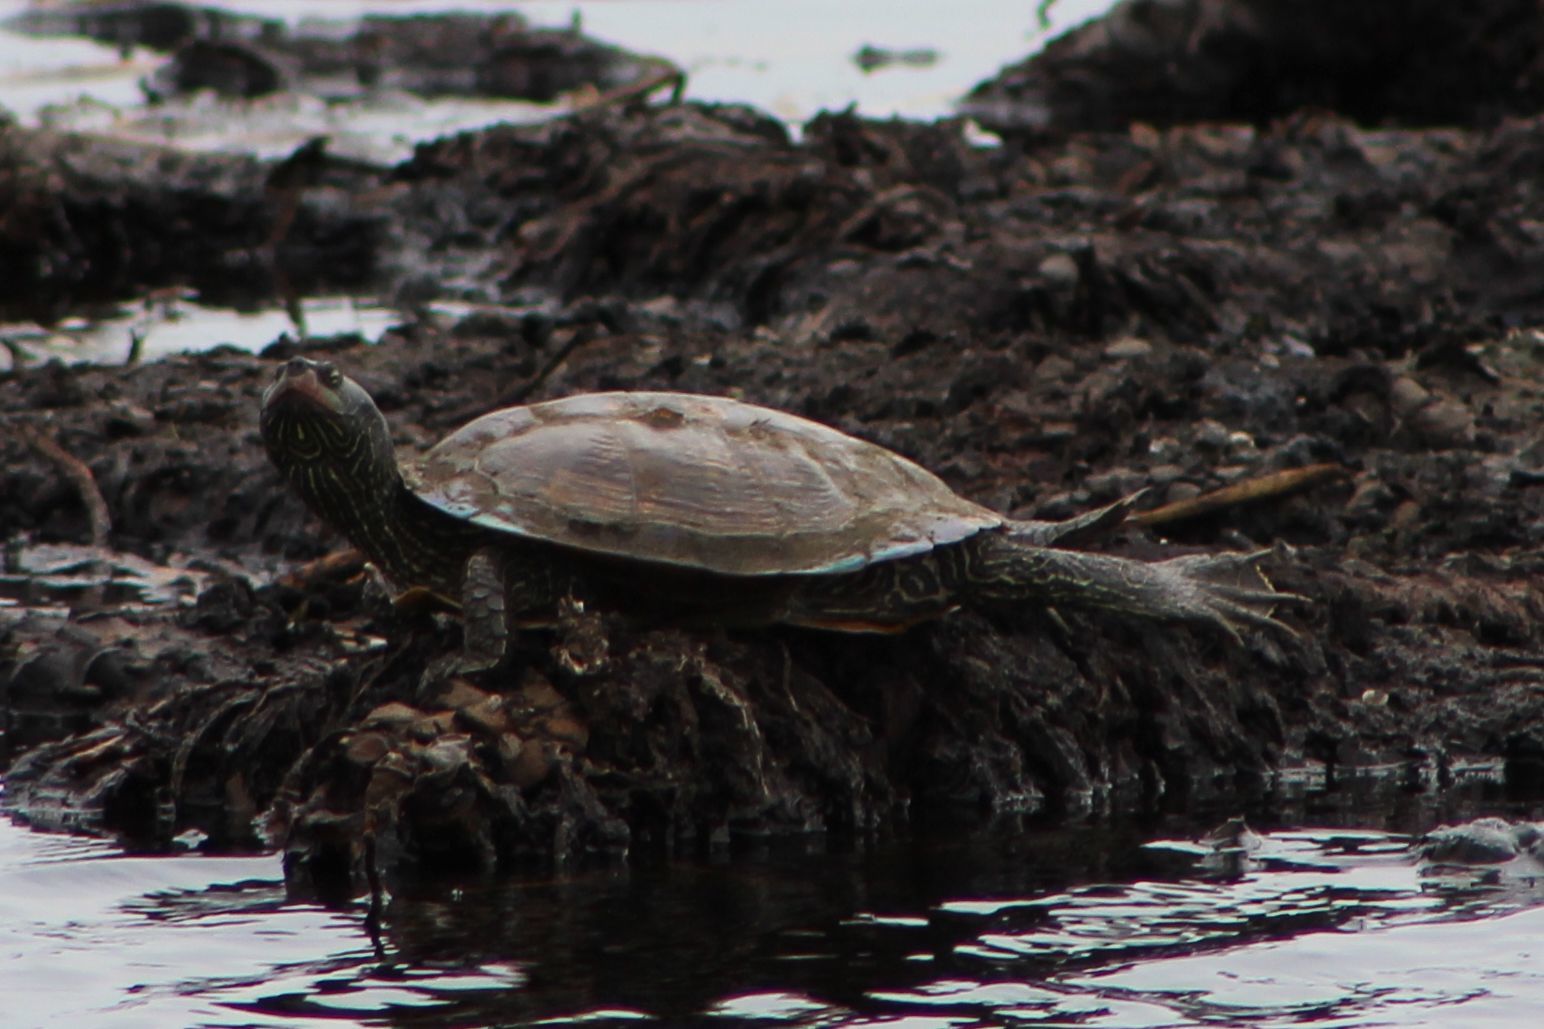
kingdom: Animalia
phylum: Chordata
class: Testudines
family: Emydidae
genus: Graptemys
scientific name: Graptemys geographica
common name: Common map turtle
